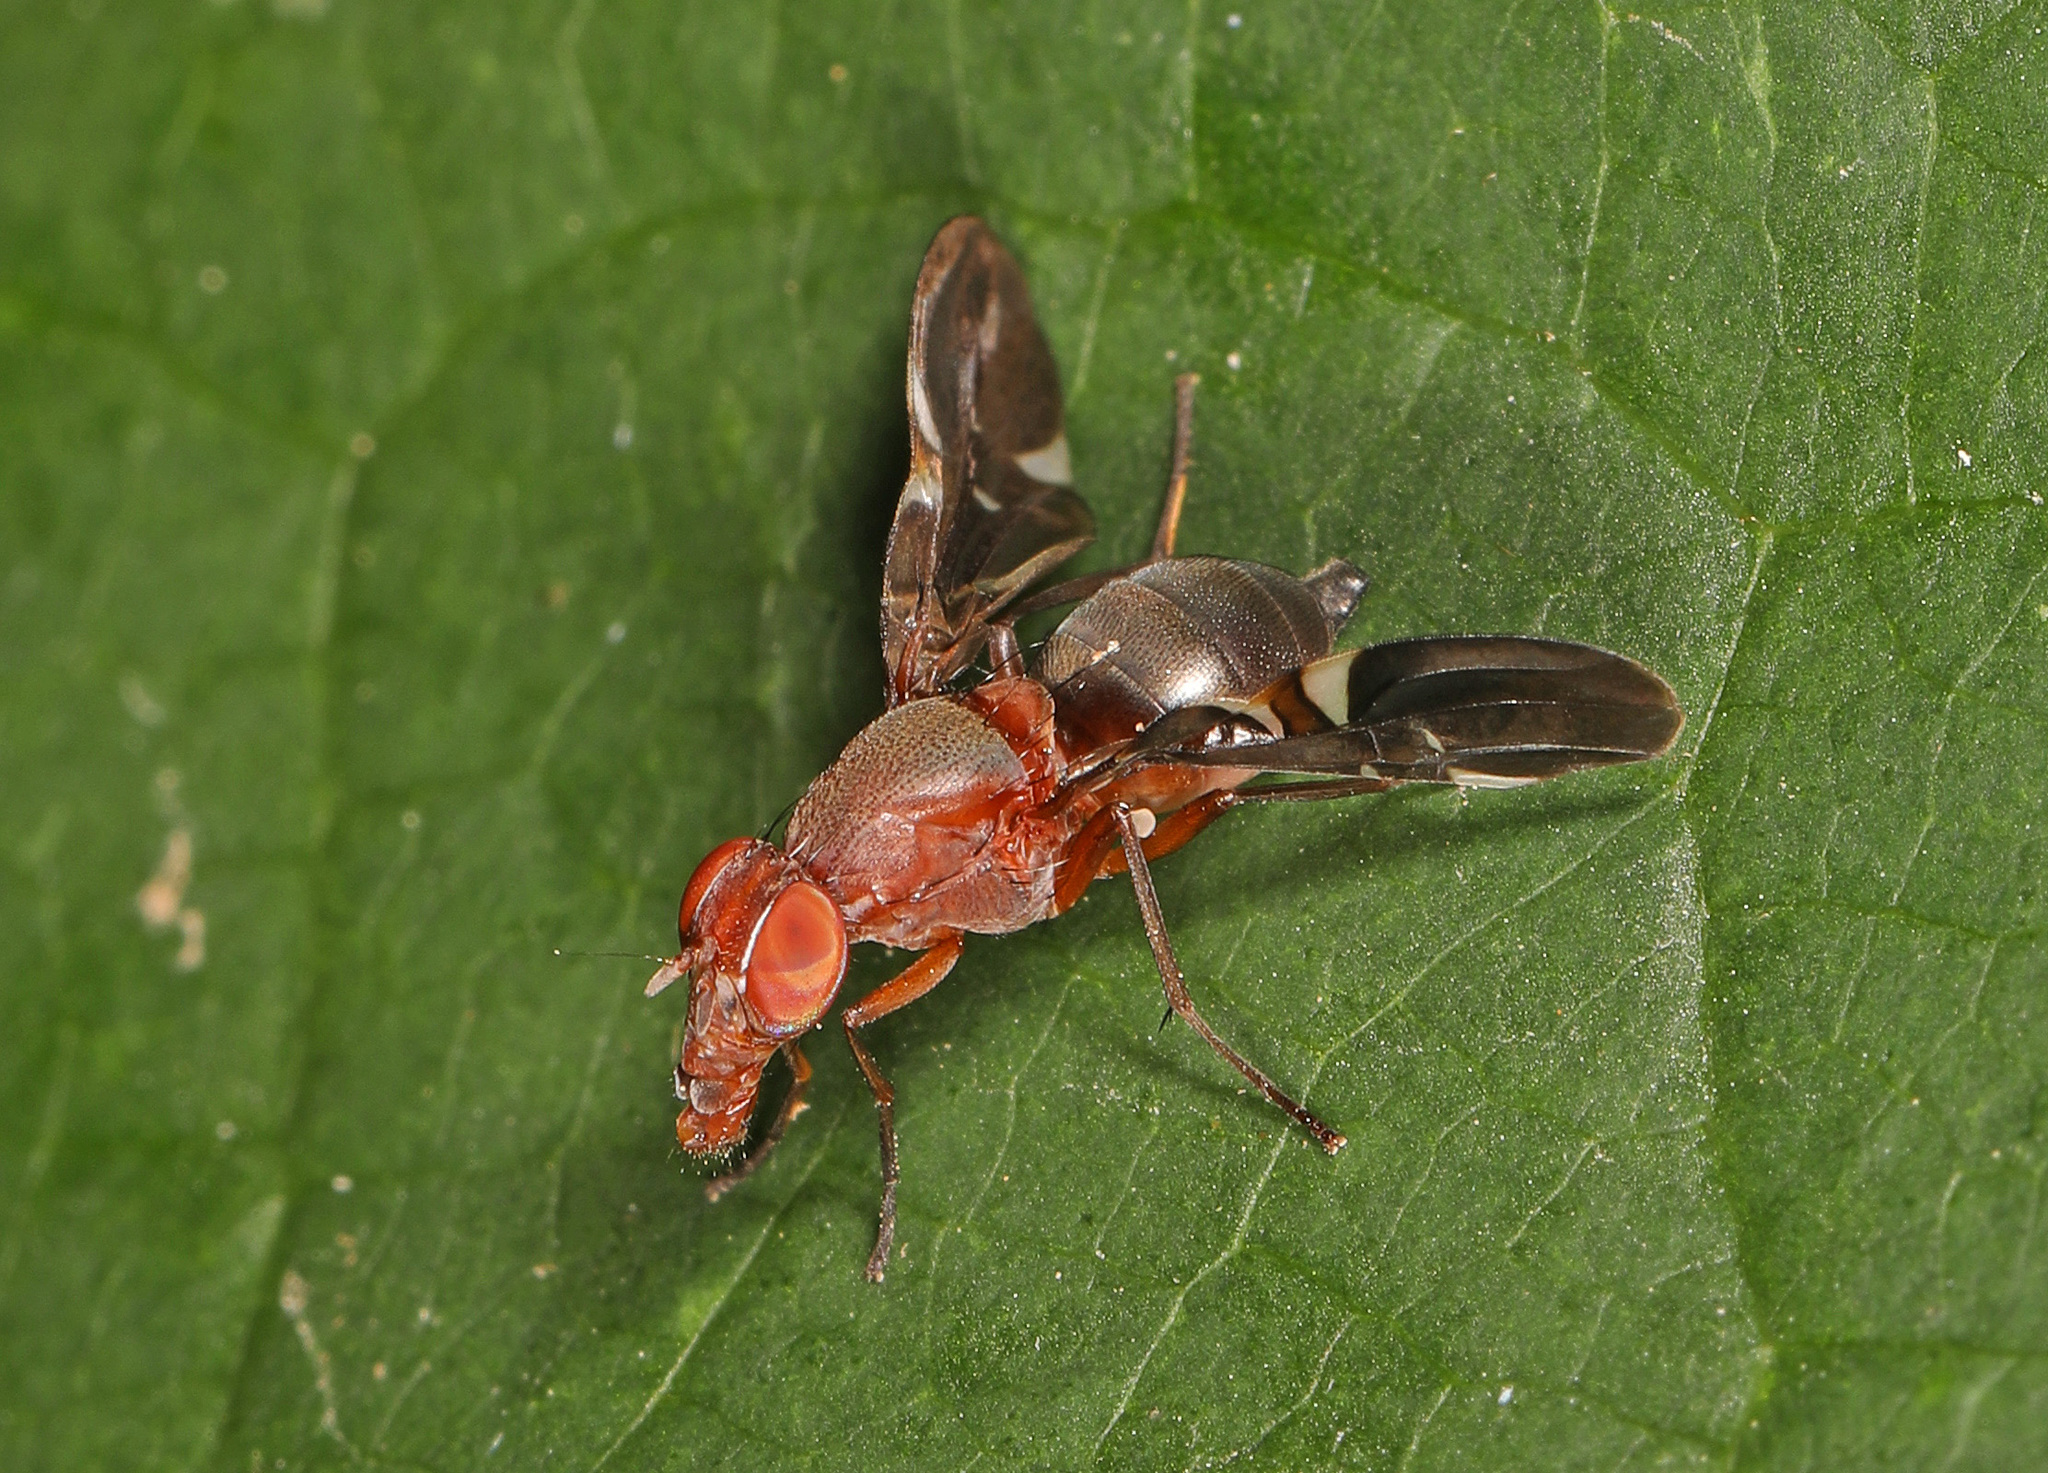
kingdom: Animalia
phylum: Arthropoda
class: Insecta
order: Diptera
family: Ulidiidae
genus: Delphinia
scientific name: Delphinia picta
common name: Common picture-winged fly
